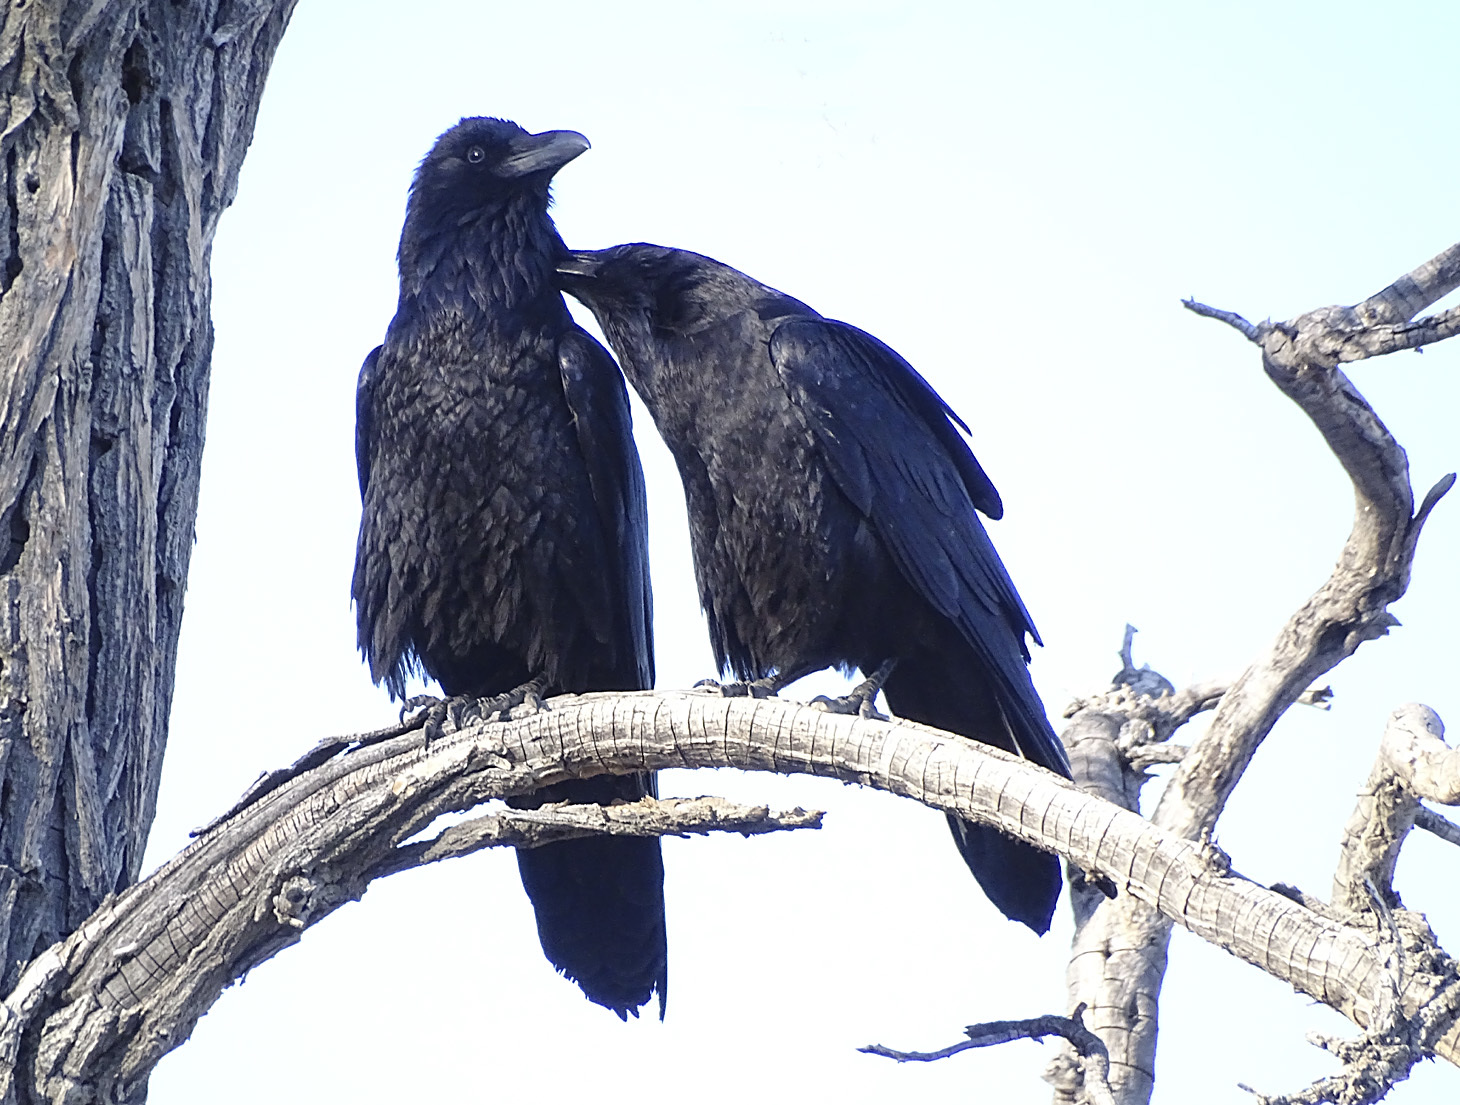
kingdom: Animalia
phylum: Chordata
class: Aves
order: Passeriformes
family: Corvidae
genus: Corvus
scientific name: Corvus corax
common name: Common raven
